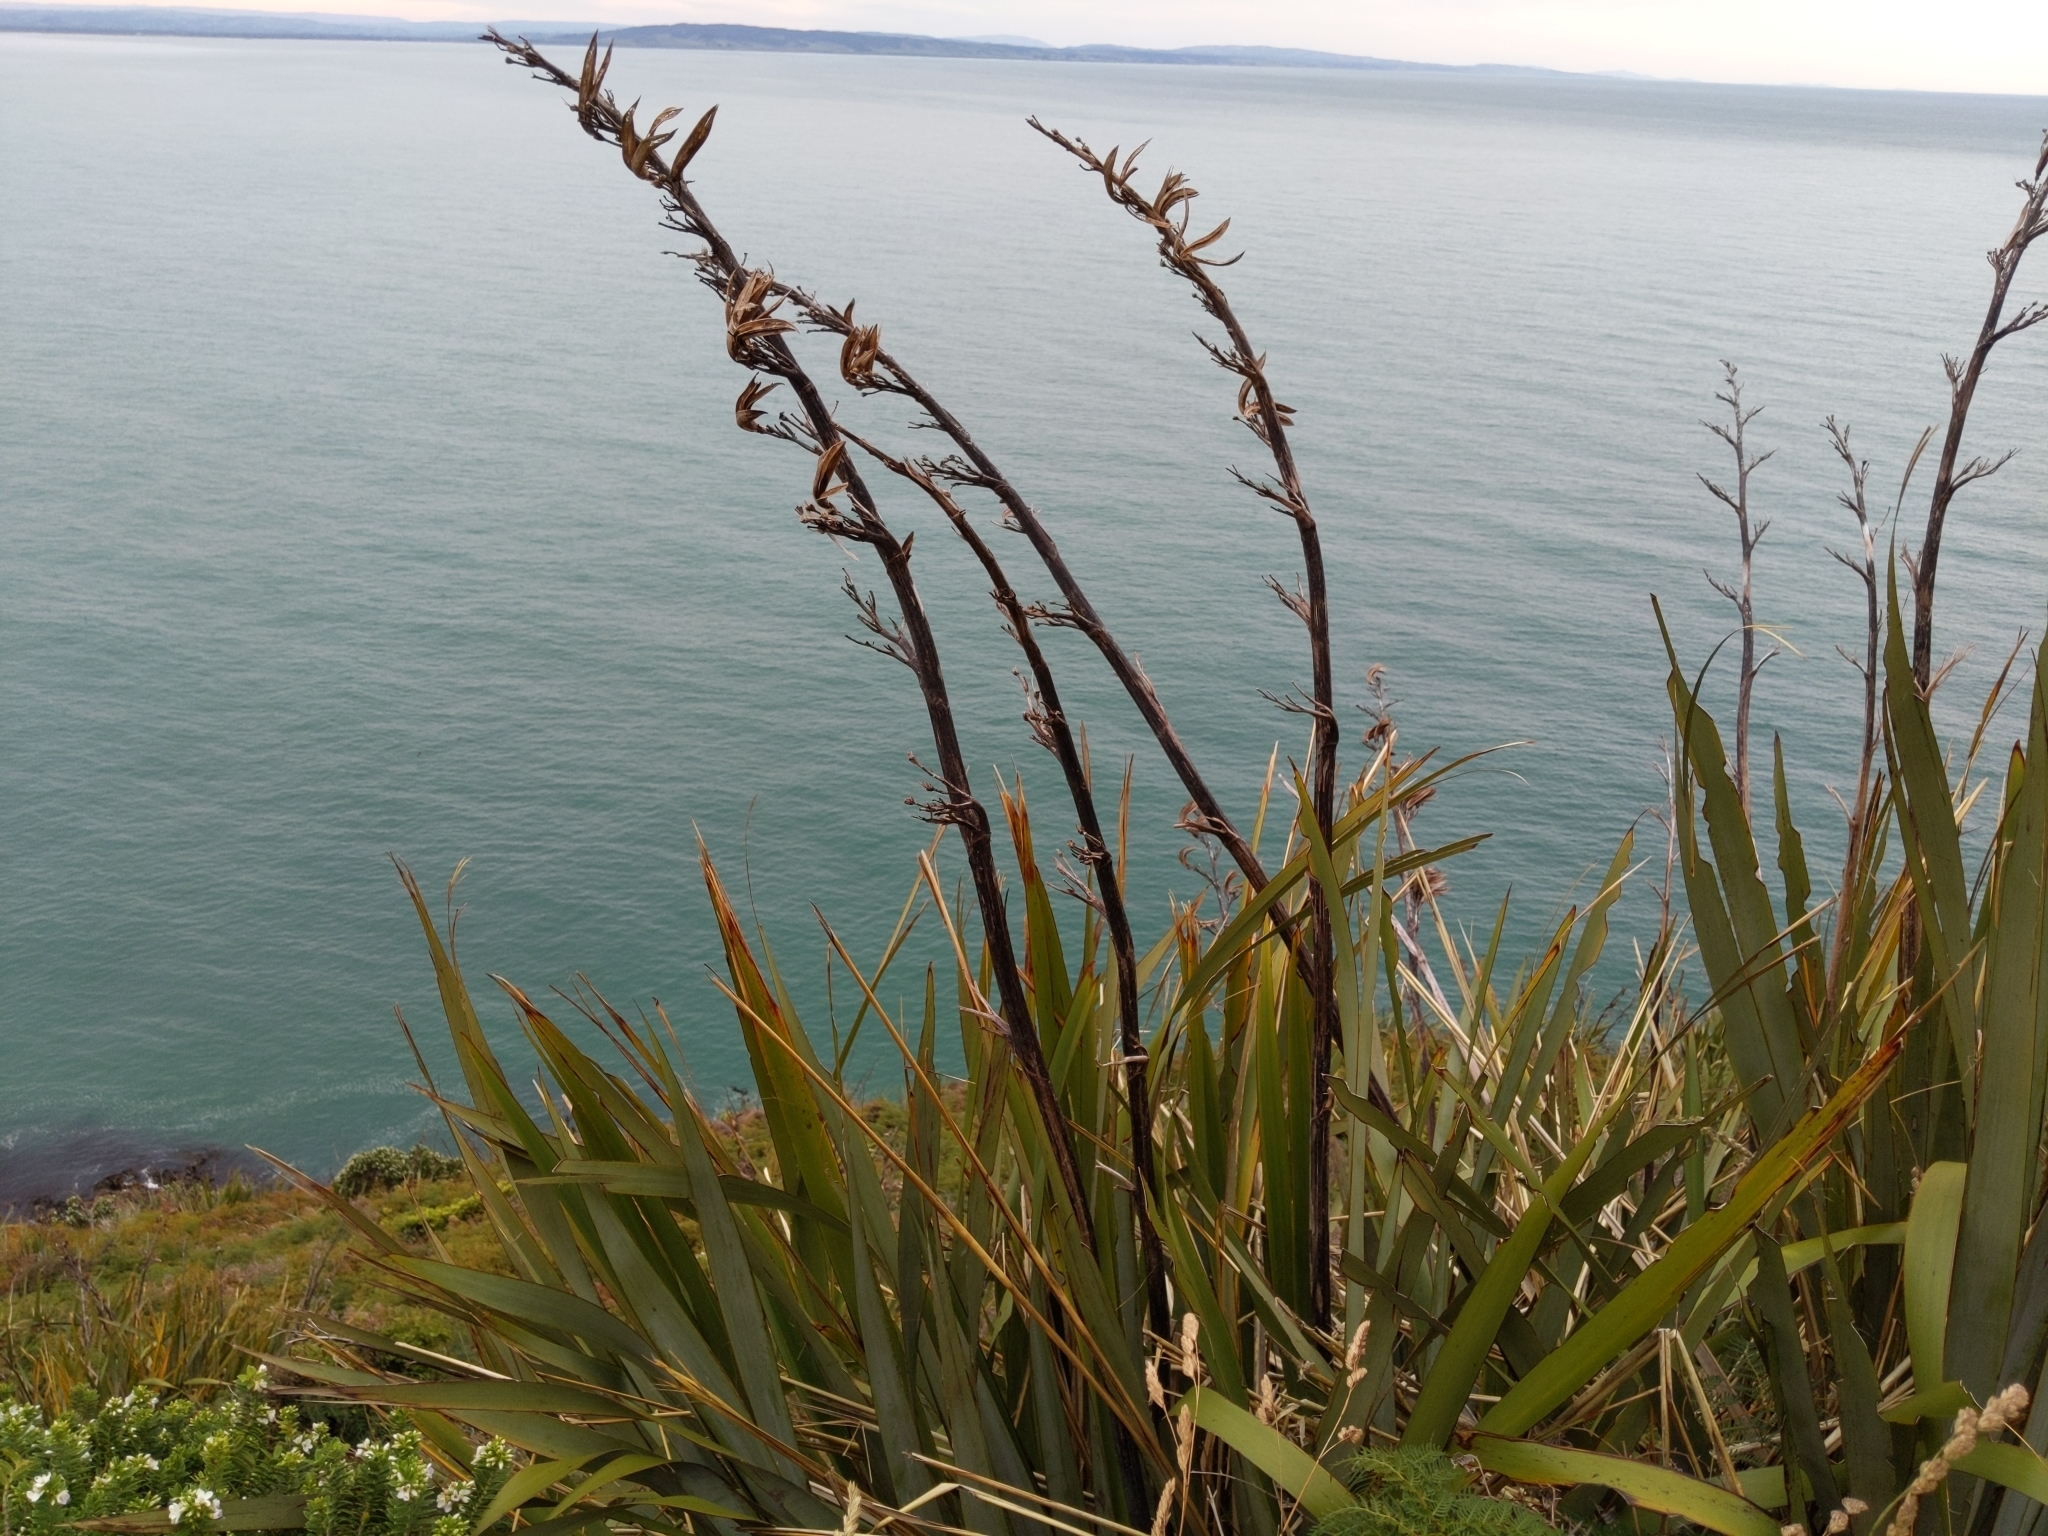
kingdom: Plantae
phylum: Tracheophyta
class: Liliopsida
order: Asparagales
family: Asphodelaceae
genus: Phormium
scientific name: Phormium tenax
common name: New zealand flax
